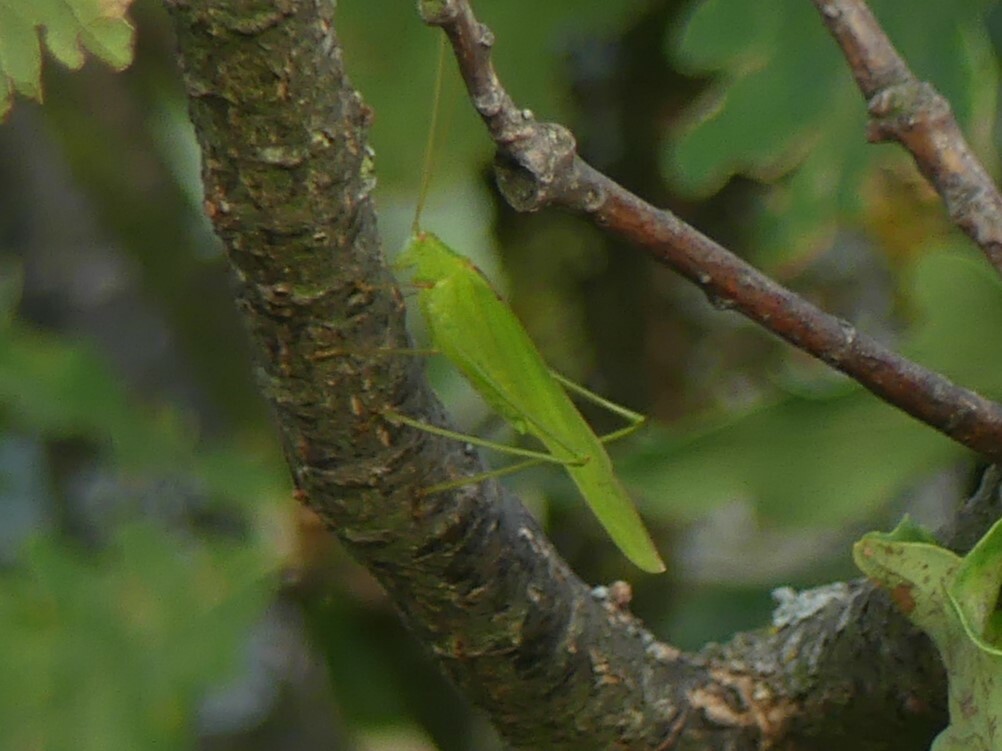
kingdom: Animalia
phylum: Arthropoda
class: Insecta
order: Orthoptera
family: Tettigoniidae
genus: Phaneroptera
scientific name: Phaneroptera falcata
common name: Sickle-bearing bush-cricket
